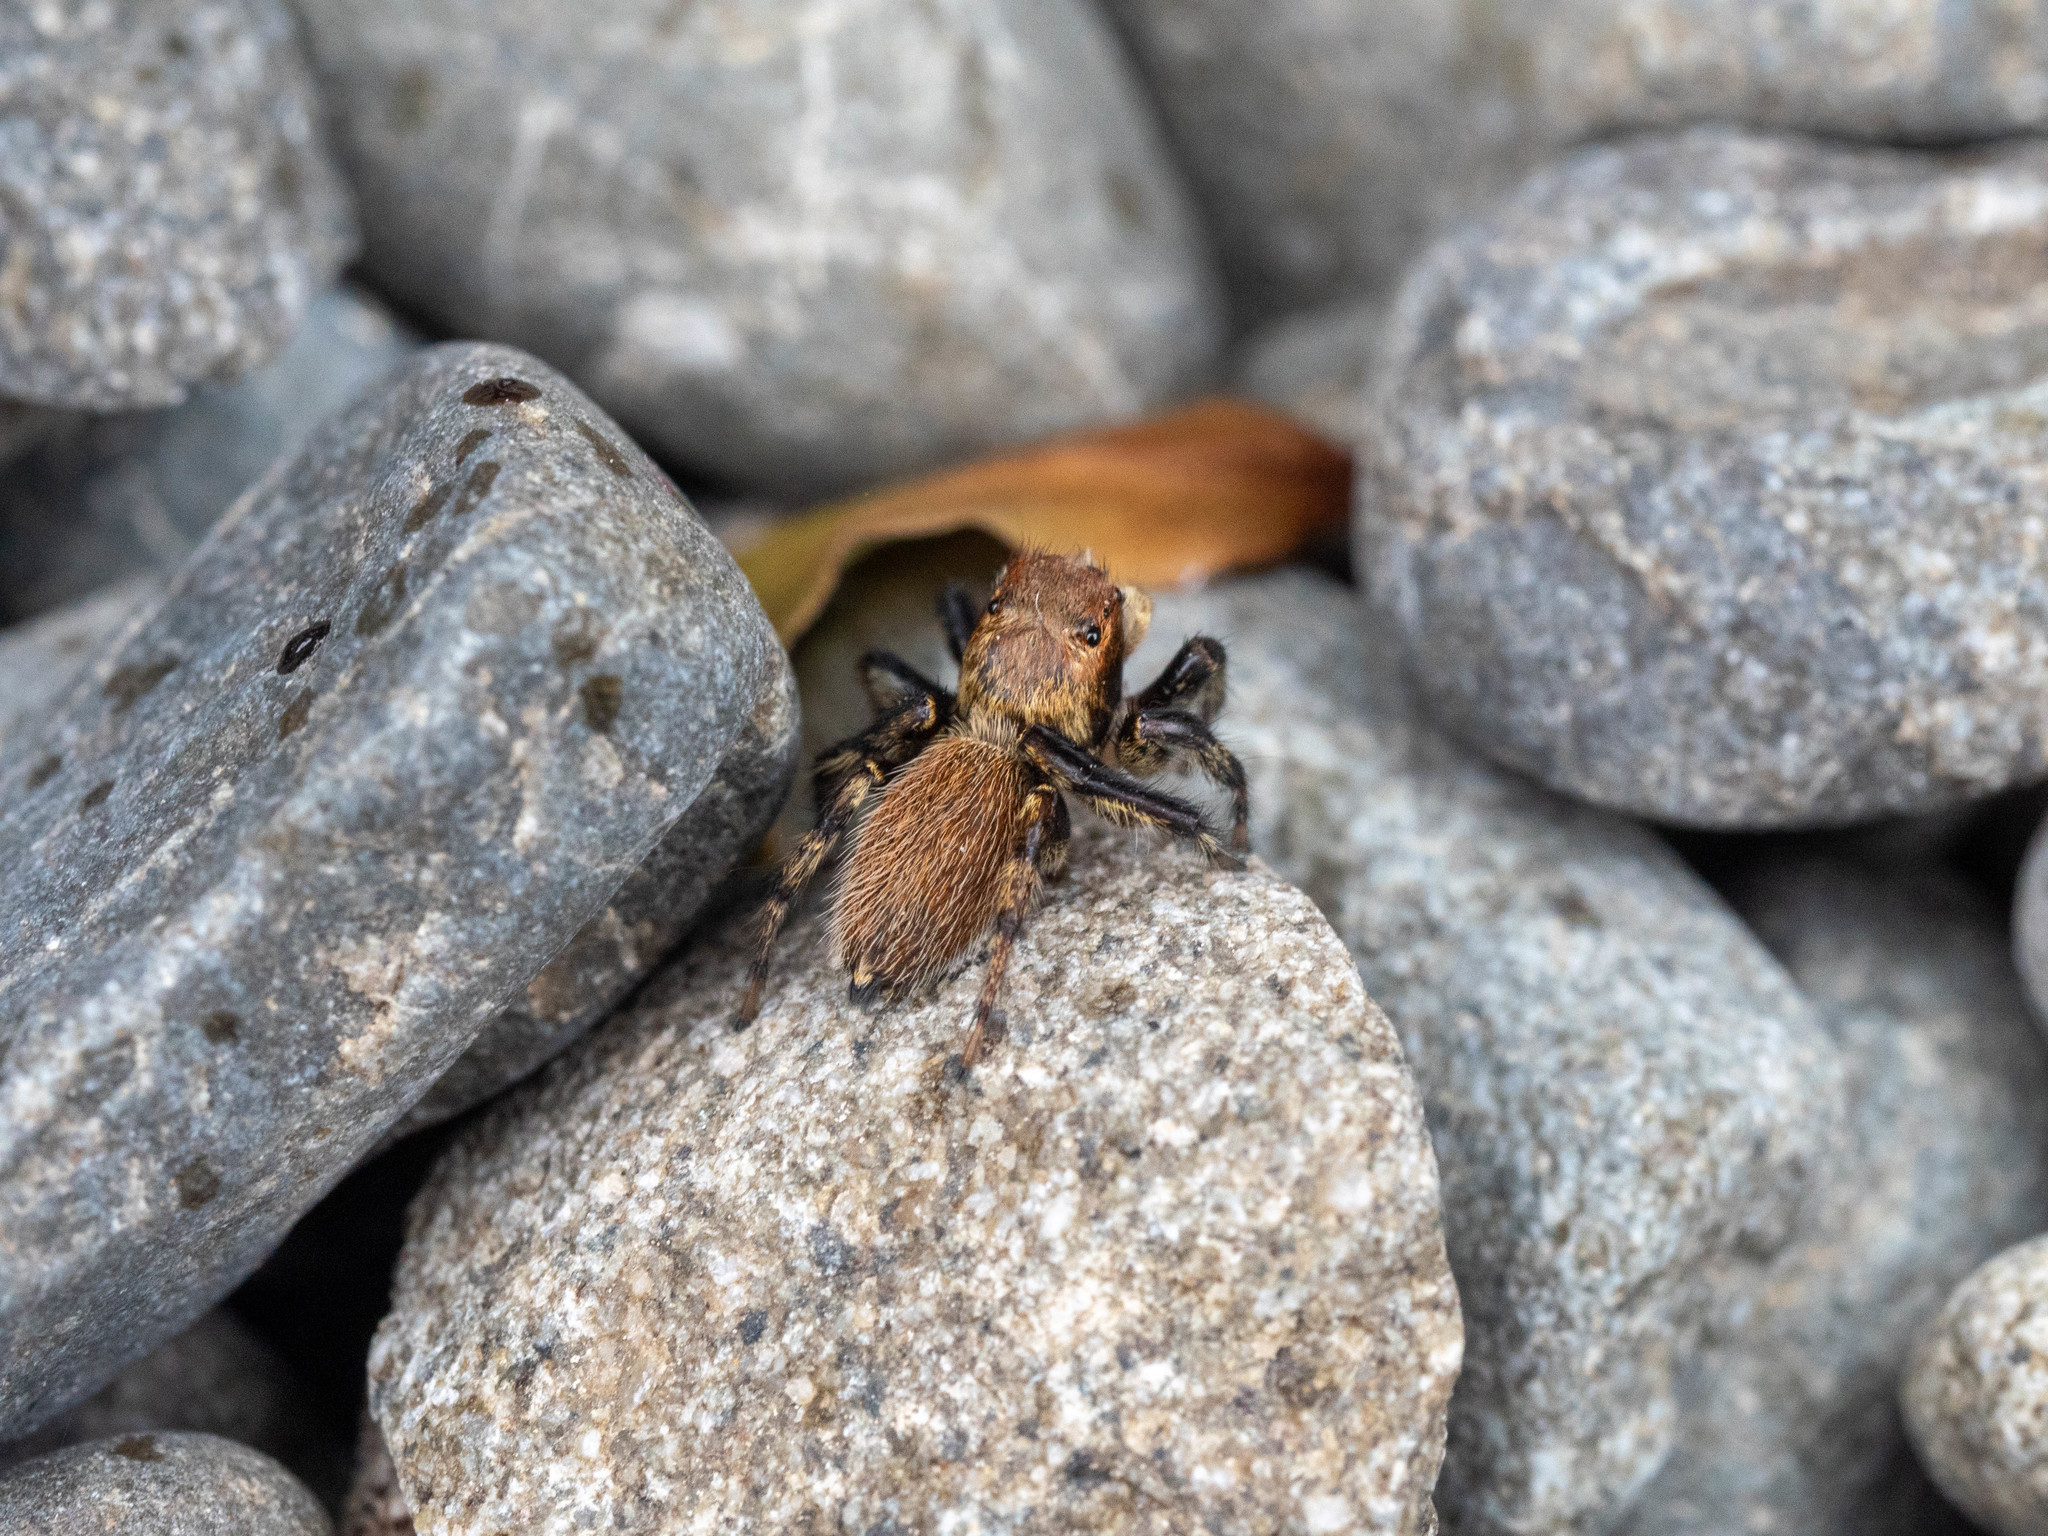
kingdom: Animalia
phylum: Arthropoda
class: Arachnida
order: Araneae
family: Salticidae
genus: Maratus
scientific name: Maratus griseus
